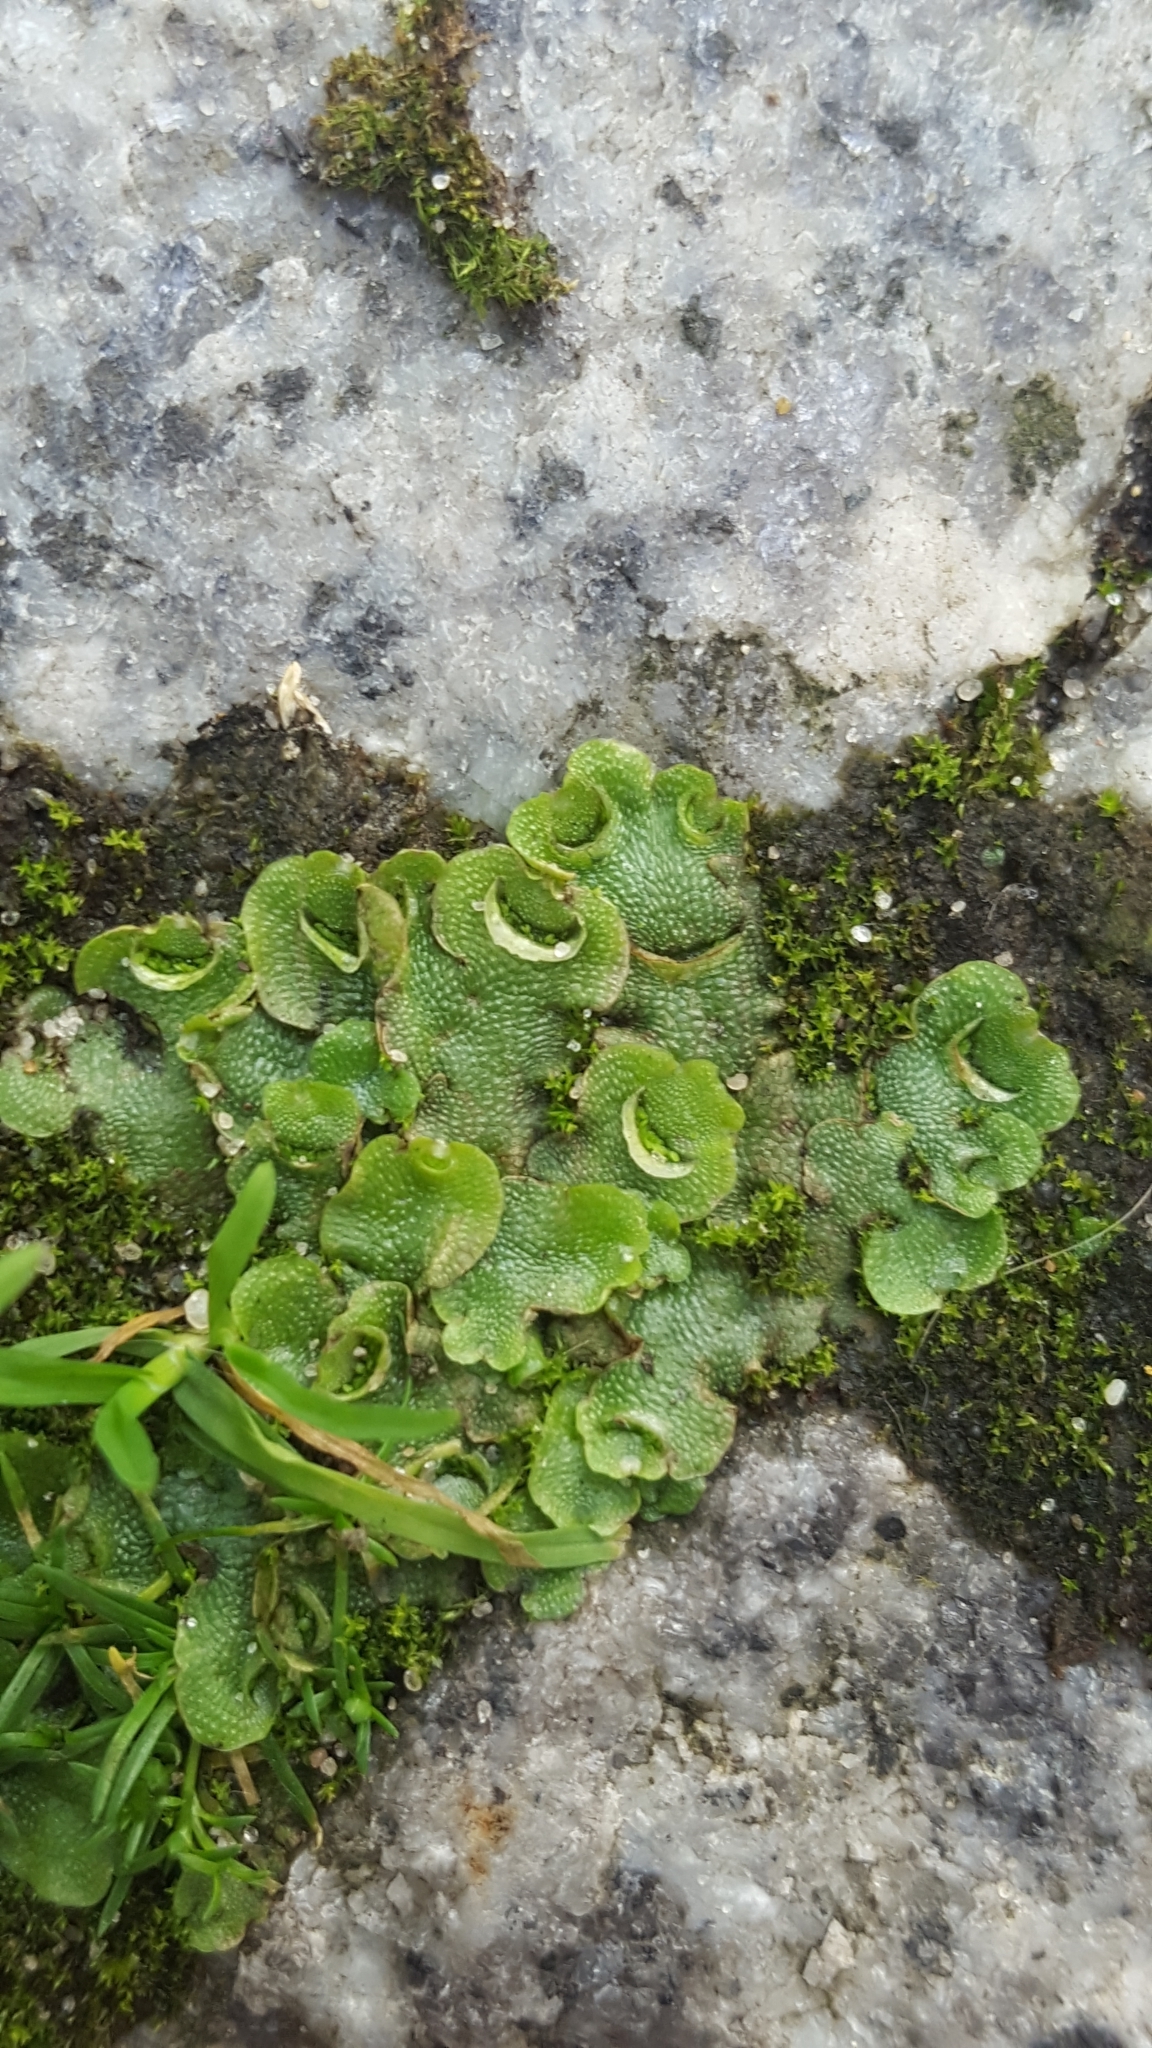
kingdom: Plantae
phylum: Marchantiophyta
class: Marchantiopsida
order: Lunulariales
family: Lunulariaceae
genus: Lunularia
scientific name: Lunularia cruciata
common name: Crescent-cup liverwort
